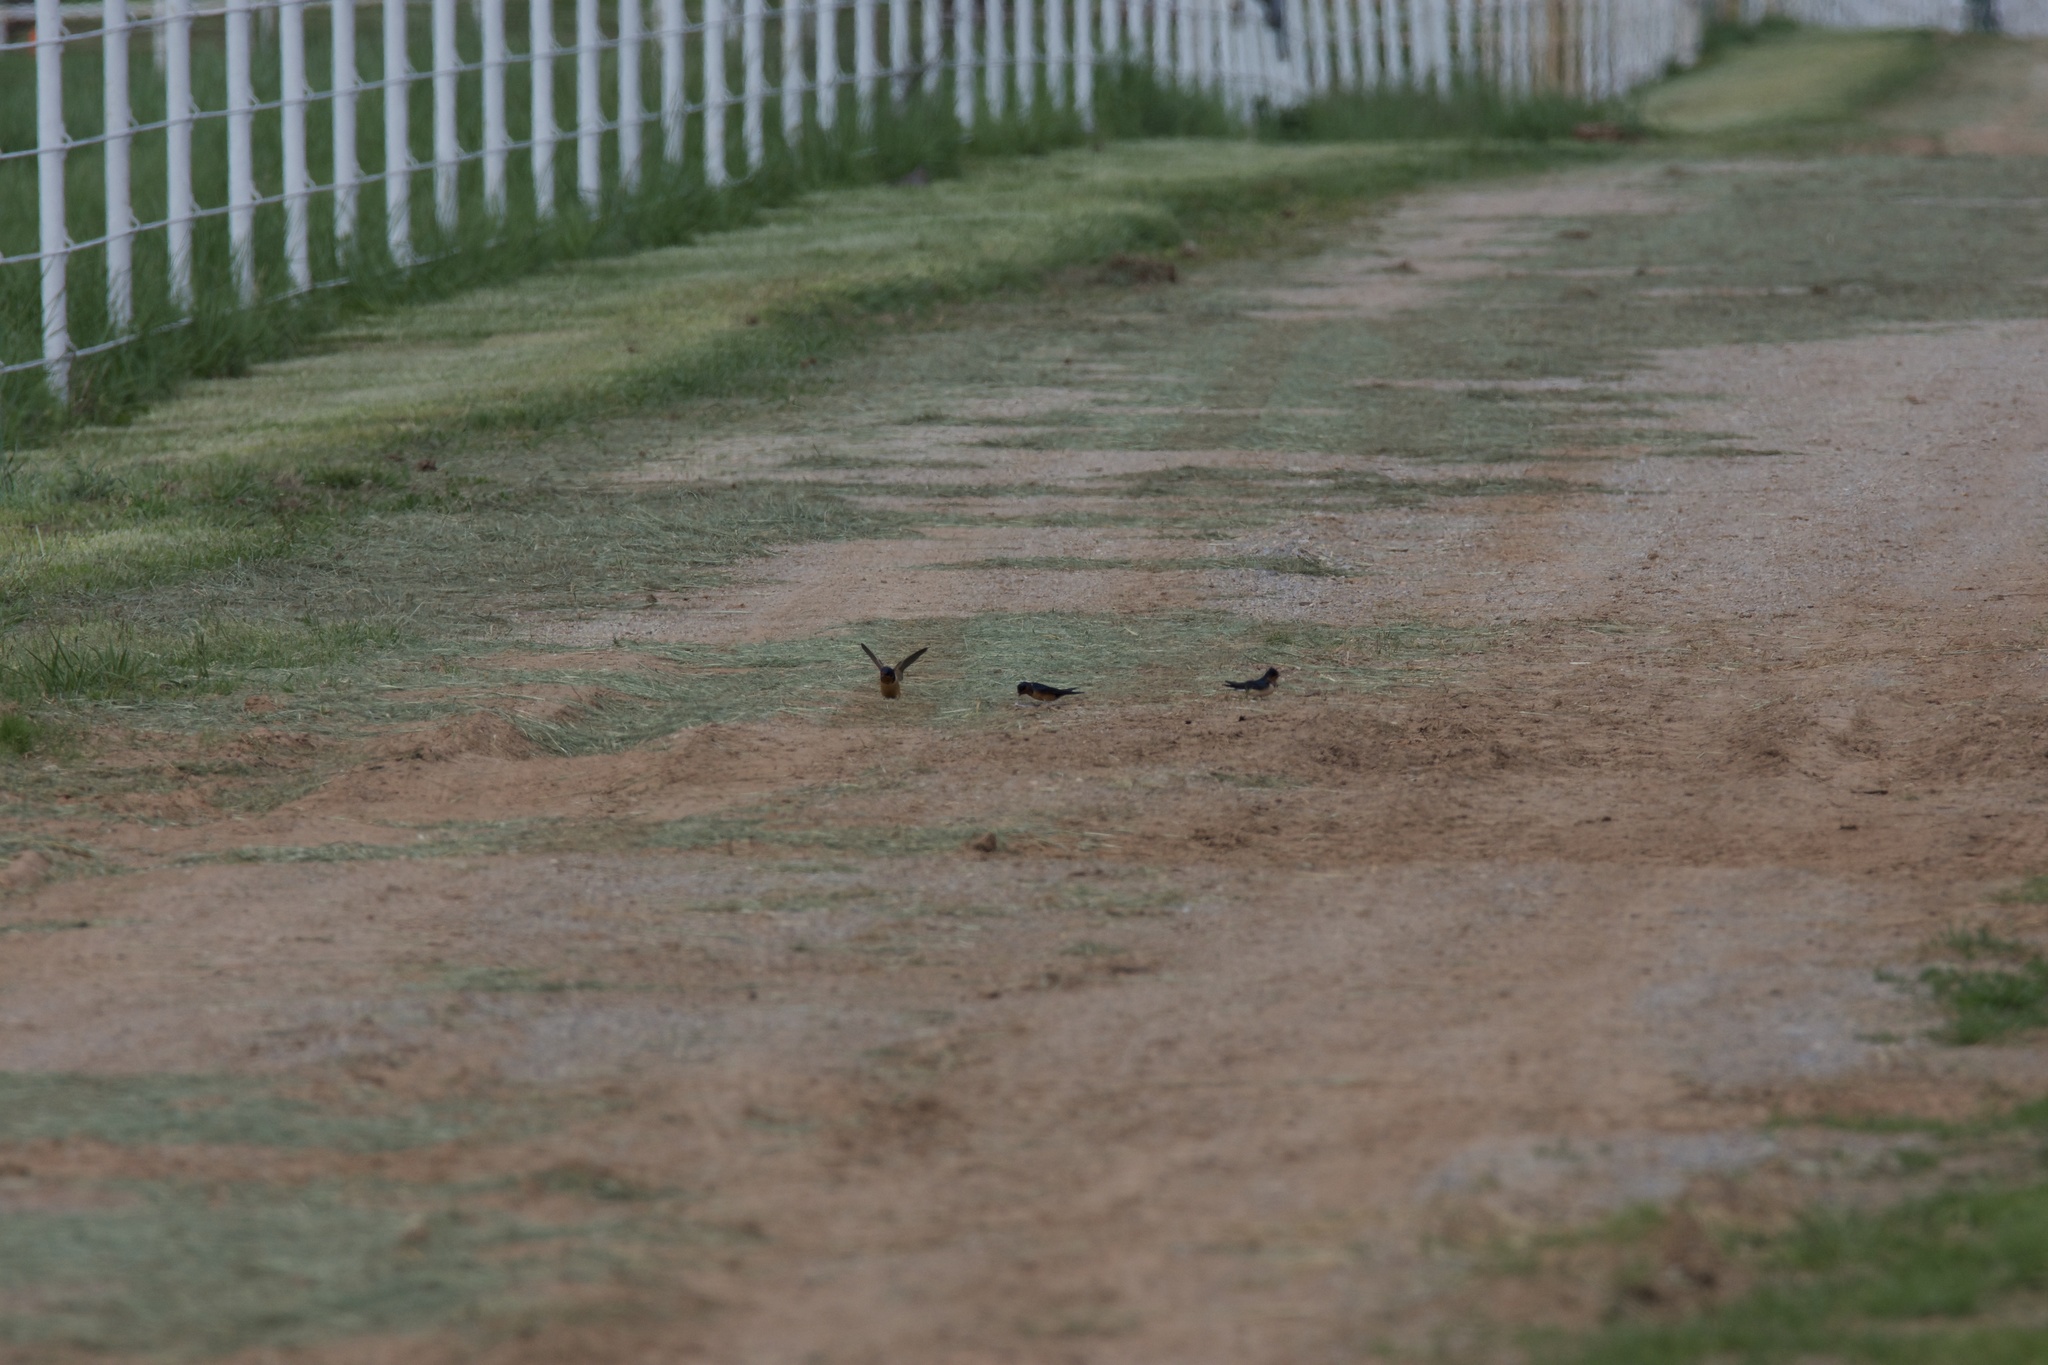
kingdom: Animalia
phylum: Chordata
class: Aves
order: Passeriformes
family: Hirundinidae
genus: Hirundo
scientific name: Hirundo rustica
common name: Barn swallow
